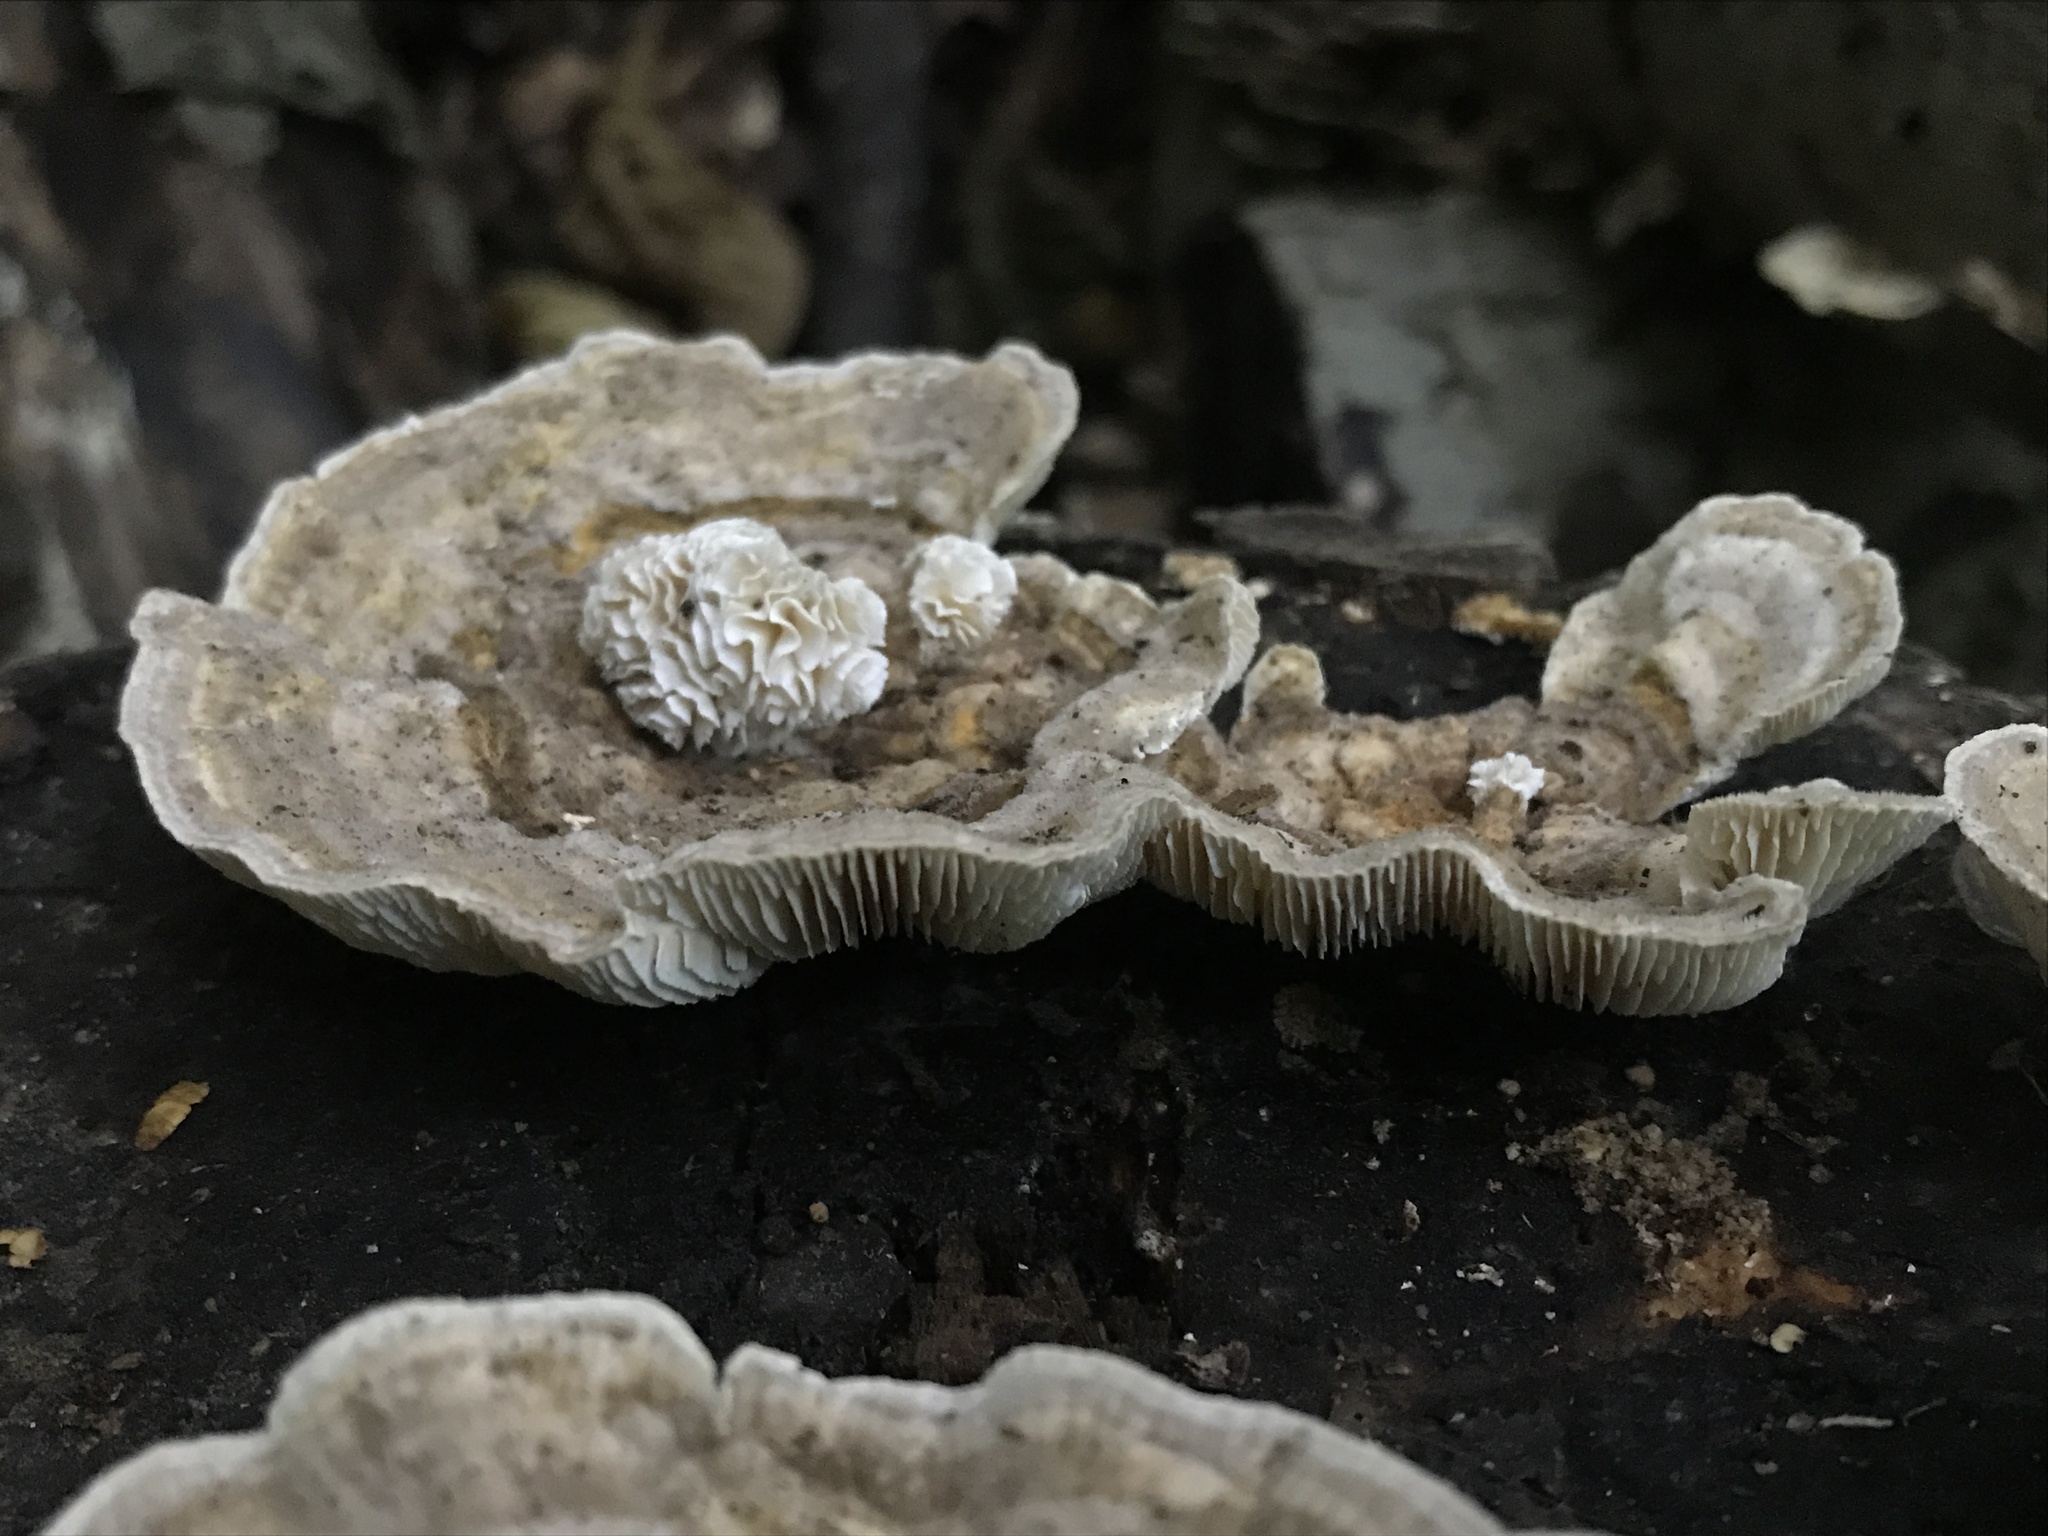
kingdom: Fungi
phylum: Basidiomycota
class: Agaricomycetes
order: Polyporales
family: Polyporaceae
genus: Lenzites
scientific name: Lenzites betulinus
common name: Birch mazegill
